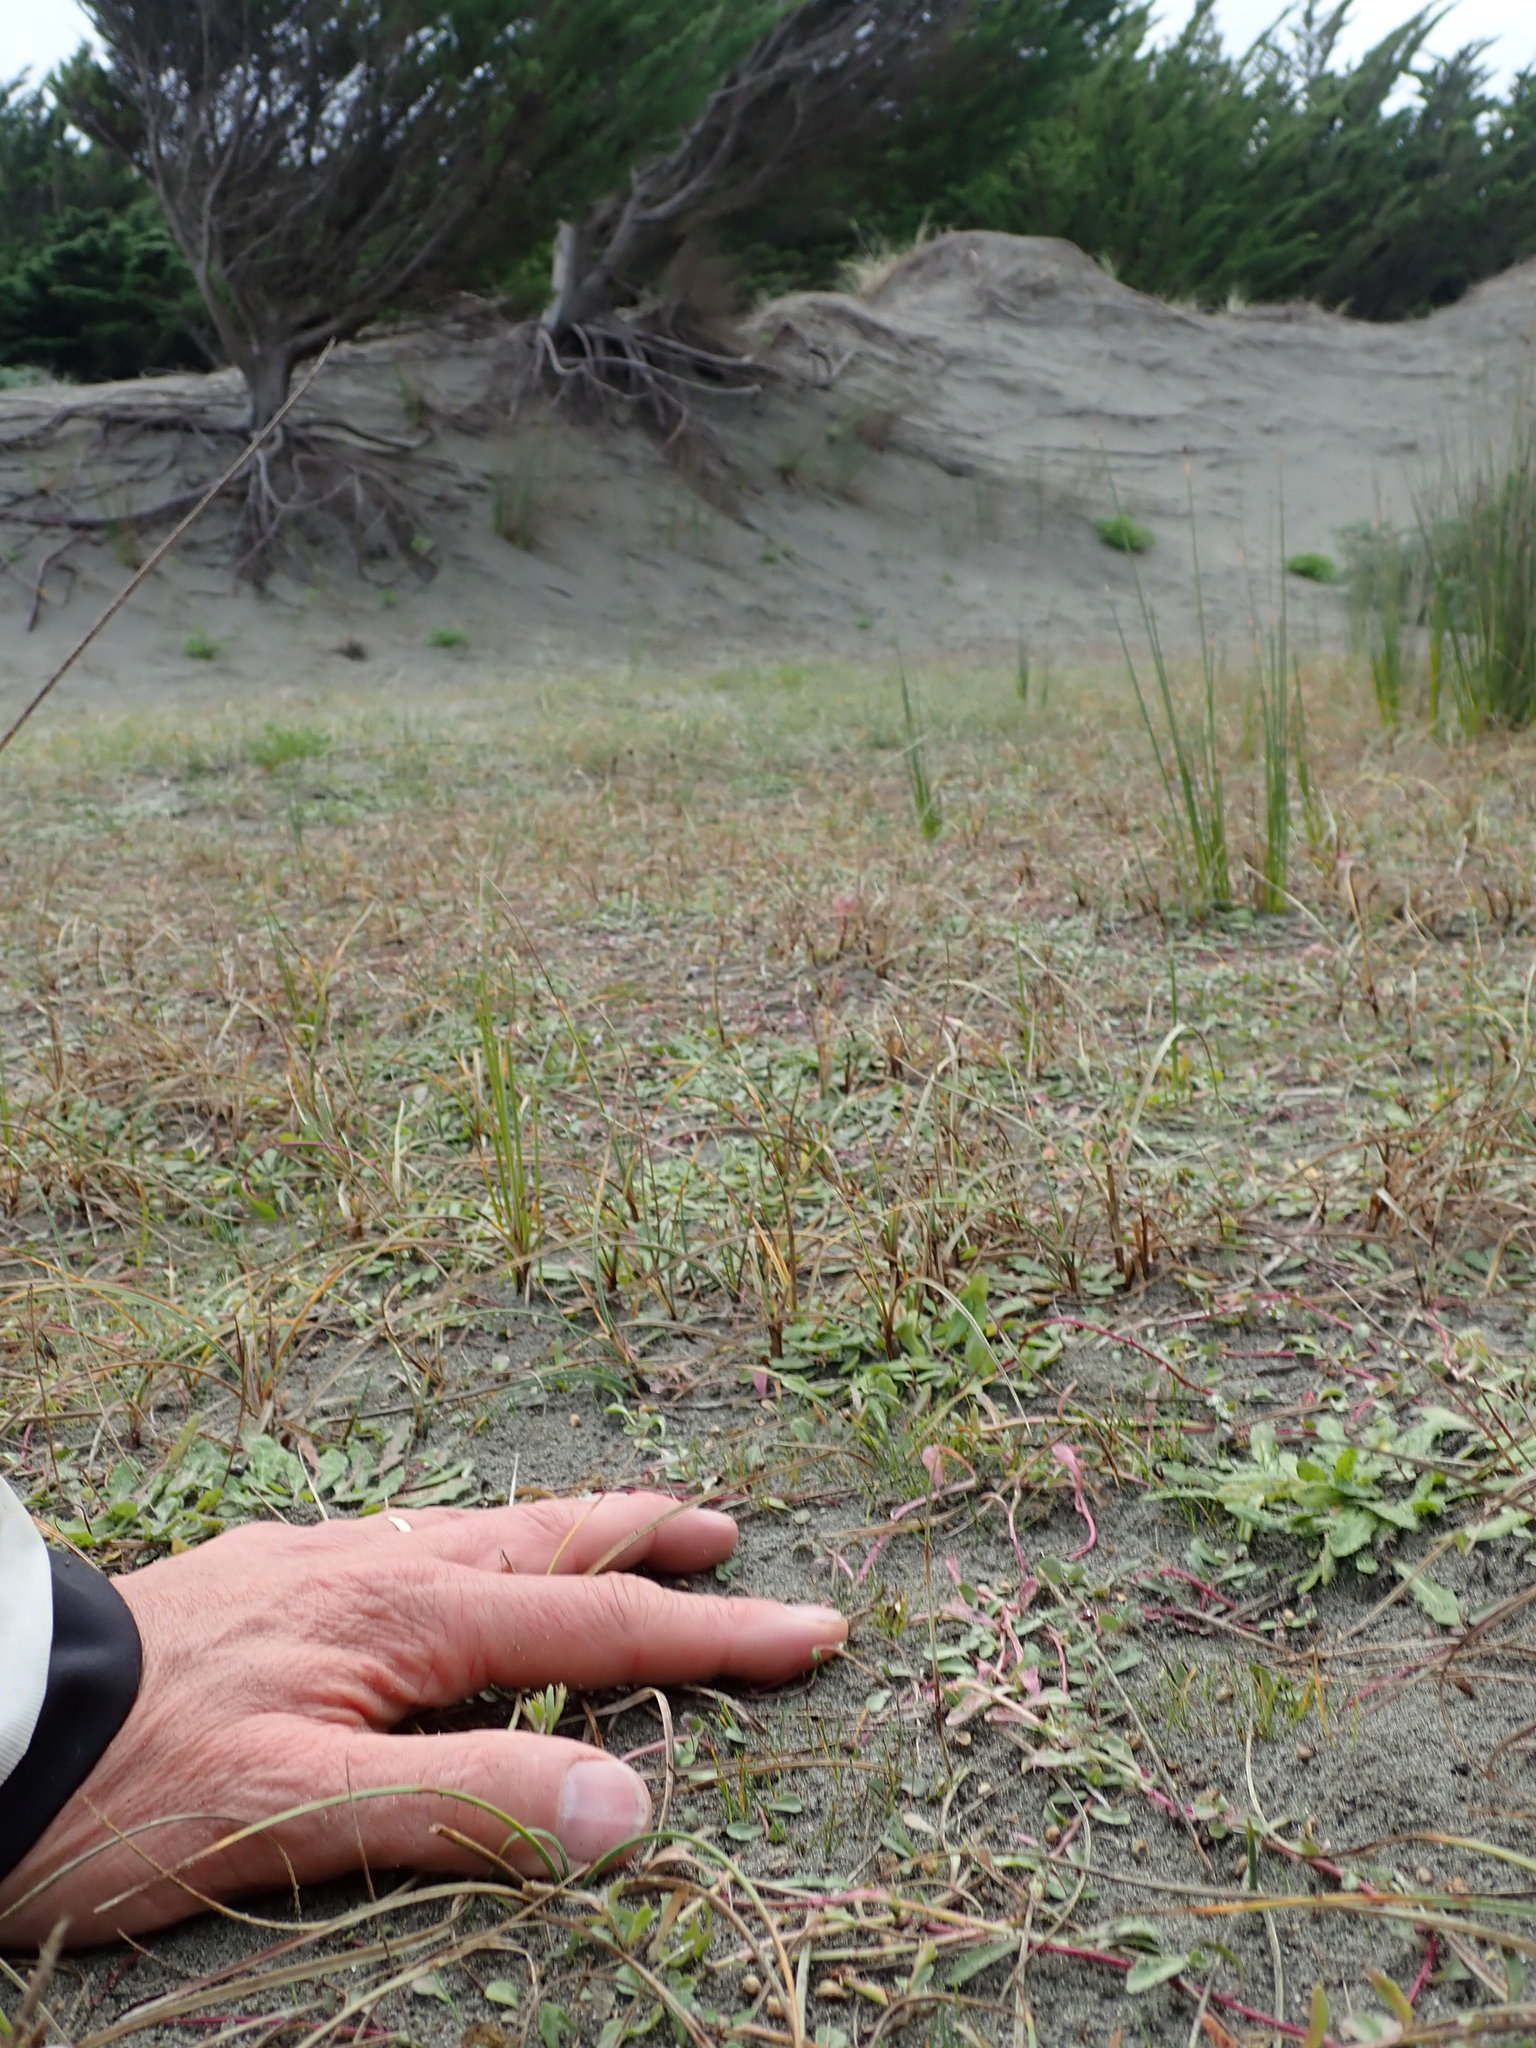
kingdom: Plantae
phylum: Tracheophyta
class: Magnoliopsida
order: Asterales
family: Campanulaceae
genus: Lobelia
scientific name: Lobelia anceps
